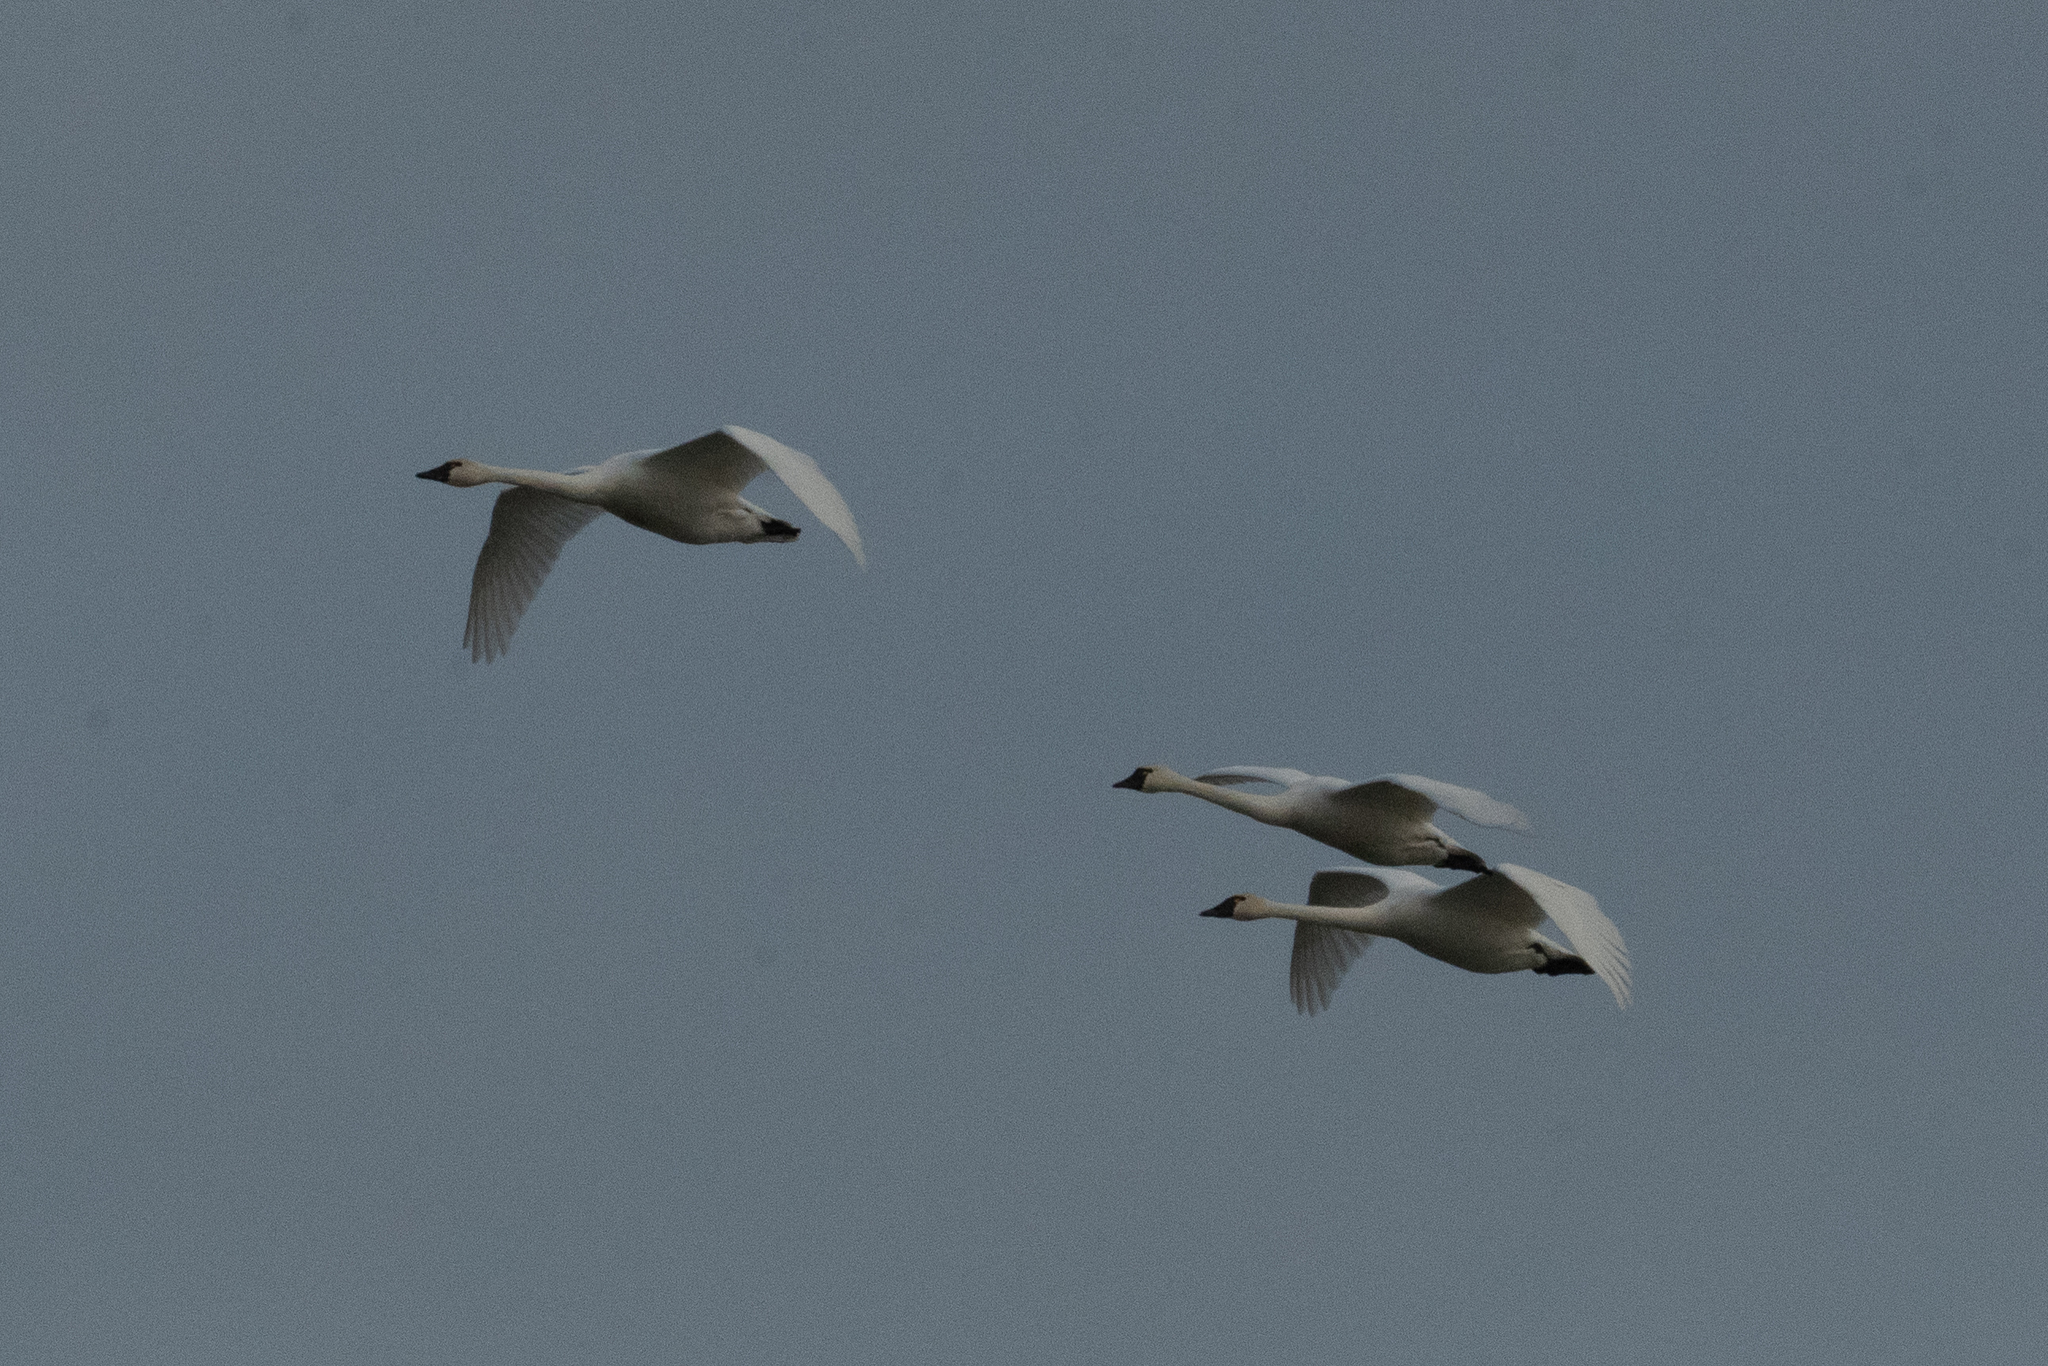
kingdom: Animalia
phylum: Chordata
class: Aves
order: Anseriformes
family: Anatidae
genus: Cygnus
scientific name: Cygnus columbianus
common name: Tundra swan
